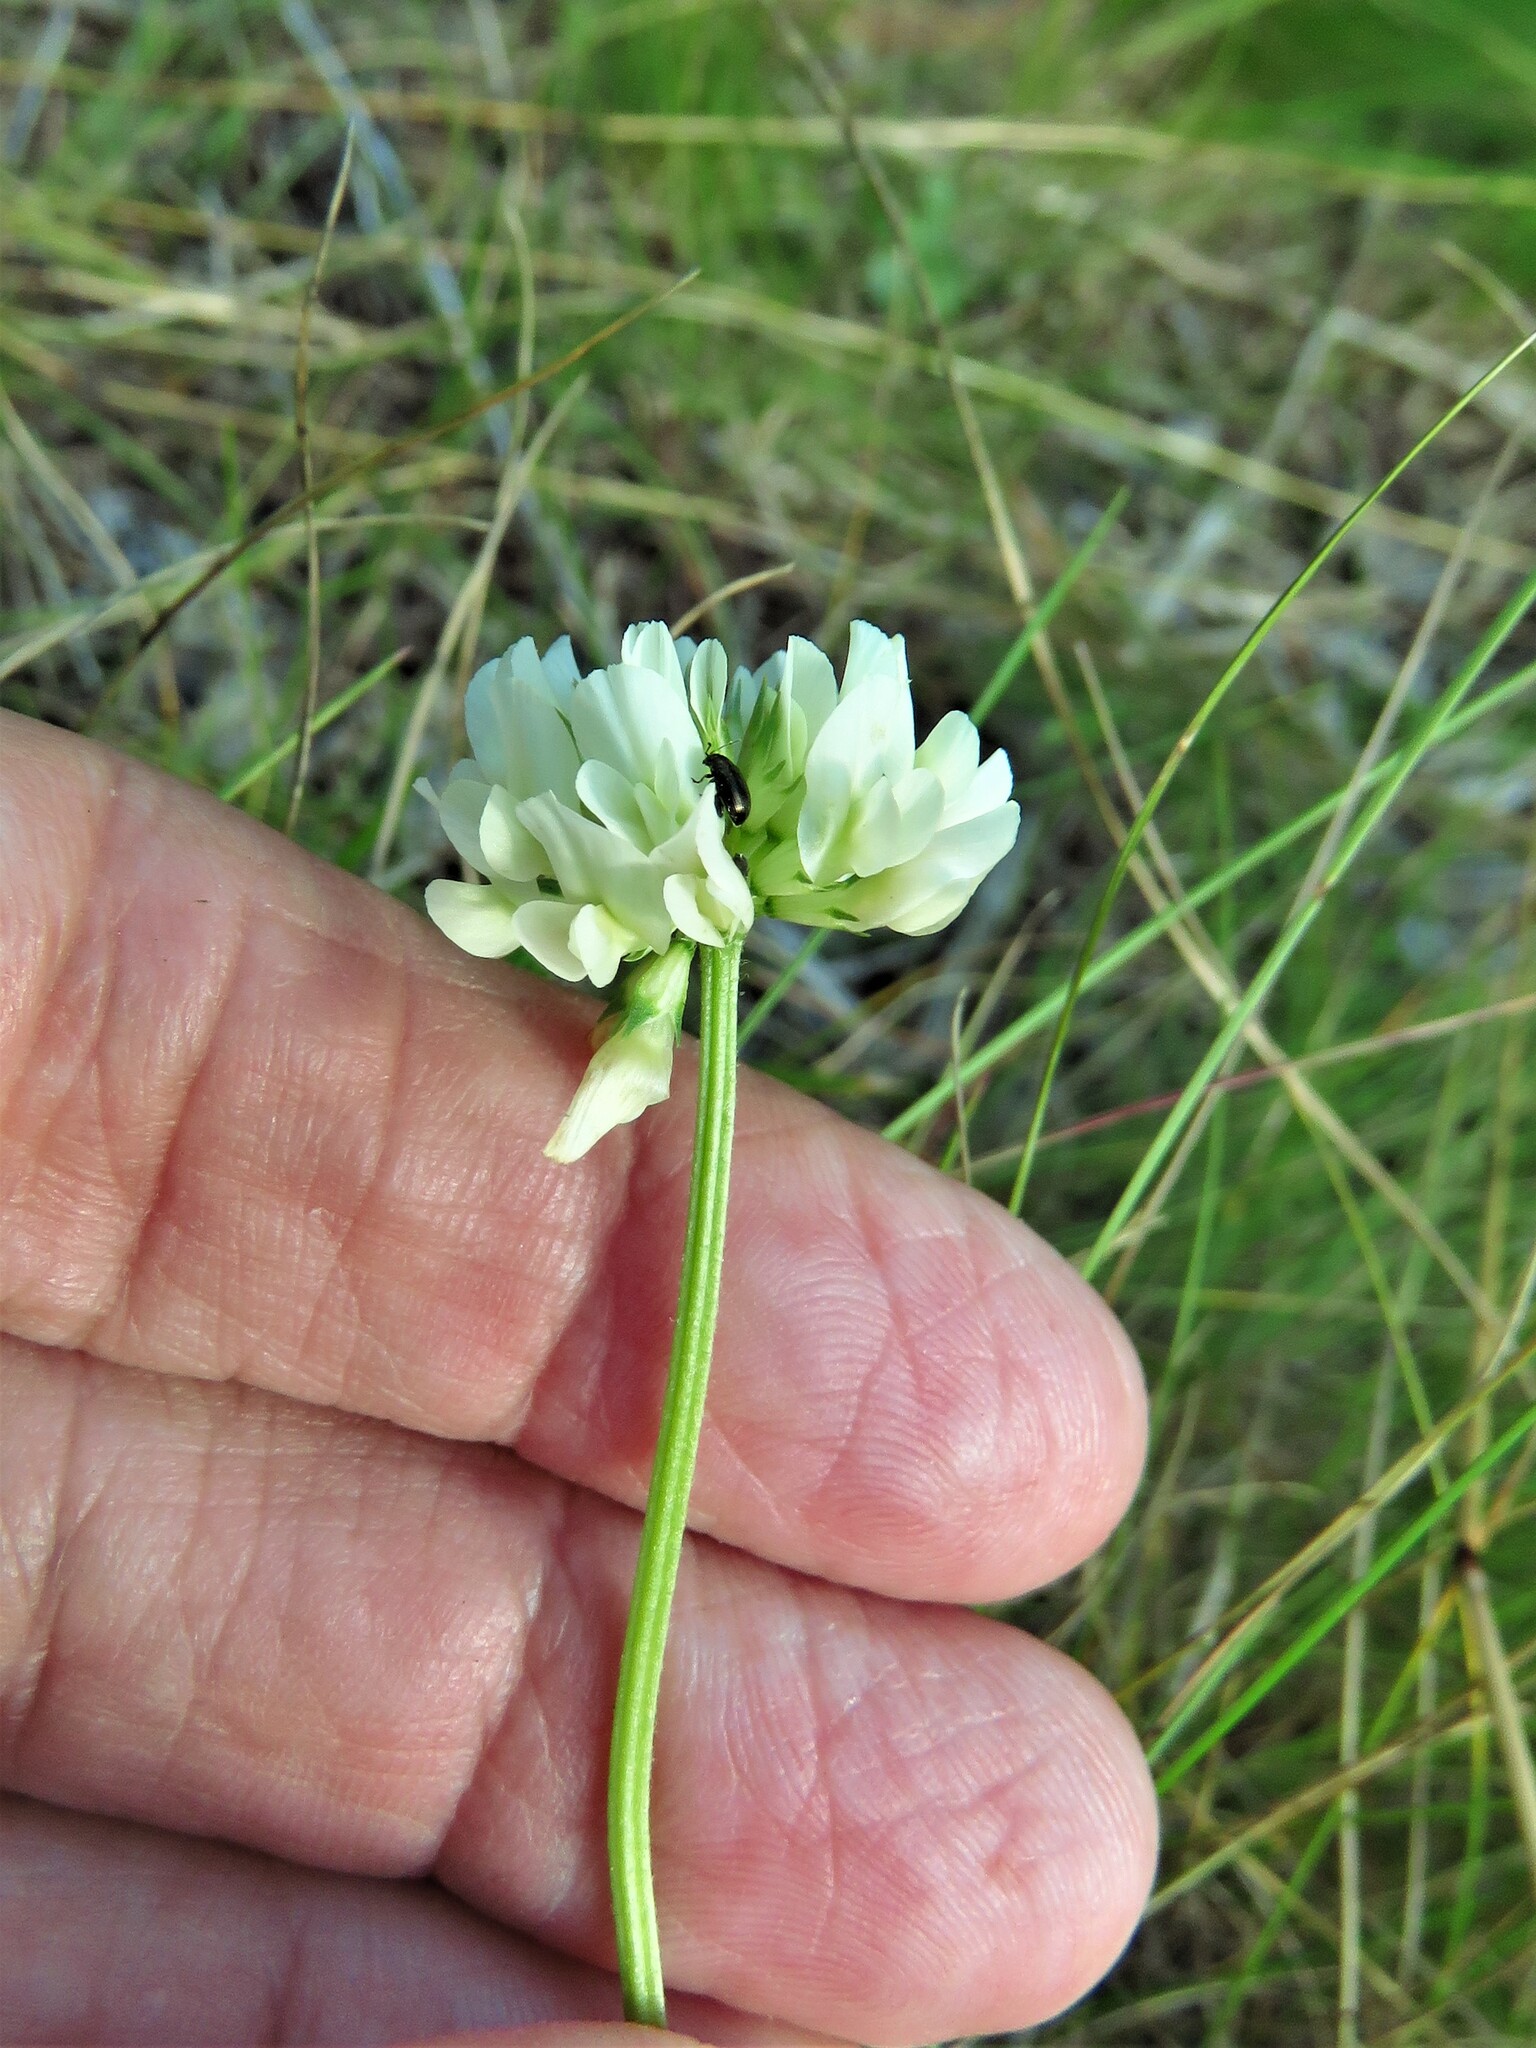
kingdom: Plantae
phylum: Tracheophyta
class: Magnoliopsida
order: Fabales
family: Fabaceae
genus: Trifolium
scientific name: Trifolium repens
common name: White clover
